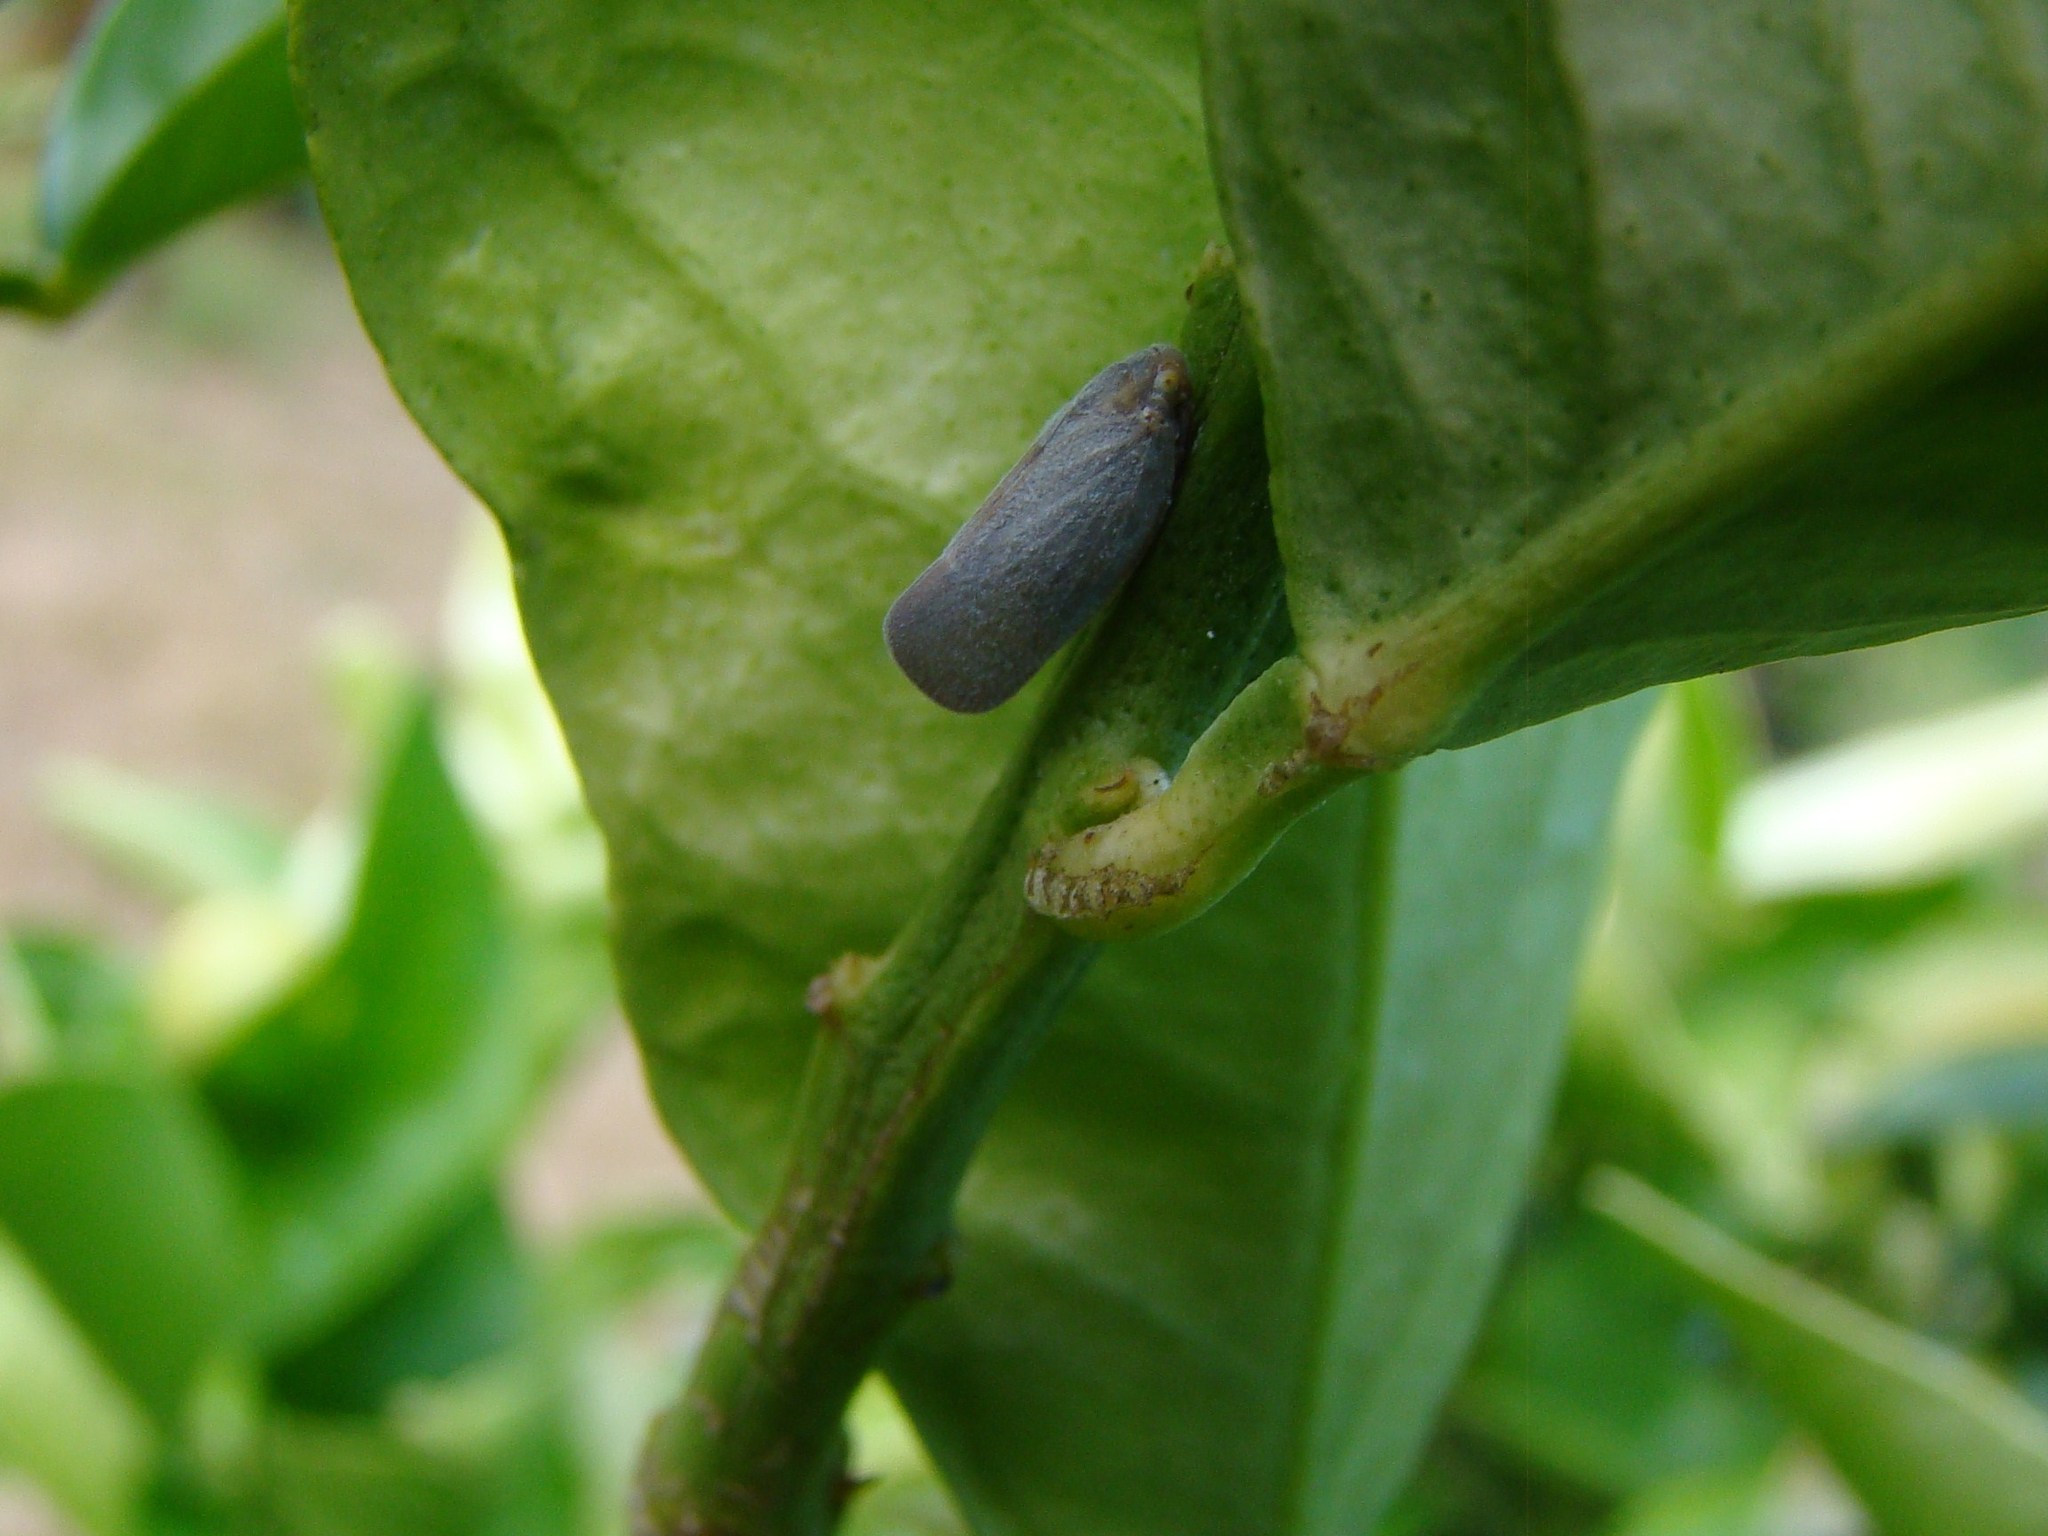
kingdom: Animalia
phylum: Arthropoda
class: Insecta
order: Hemiptera
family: Flatidae
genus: Anzora
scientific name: Anzora unicolor
